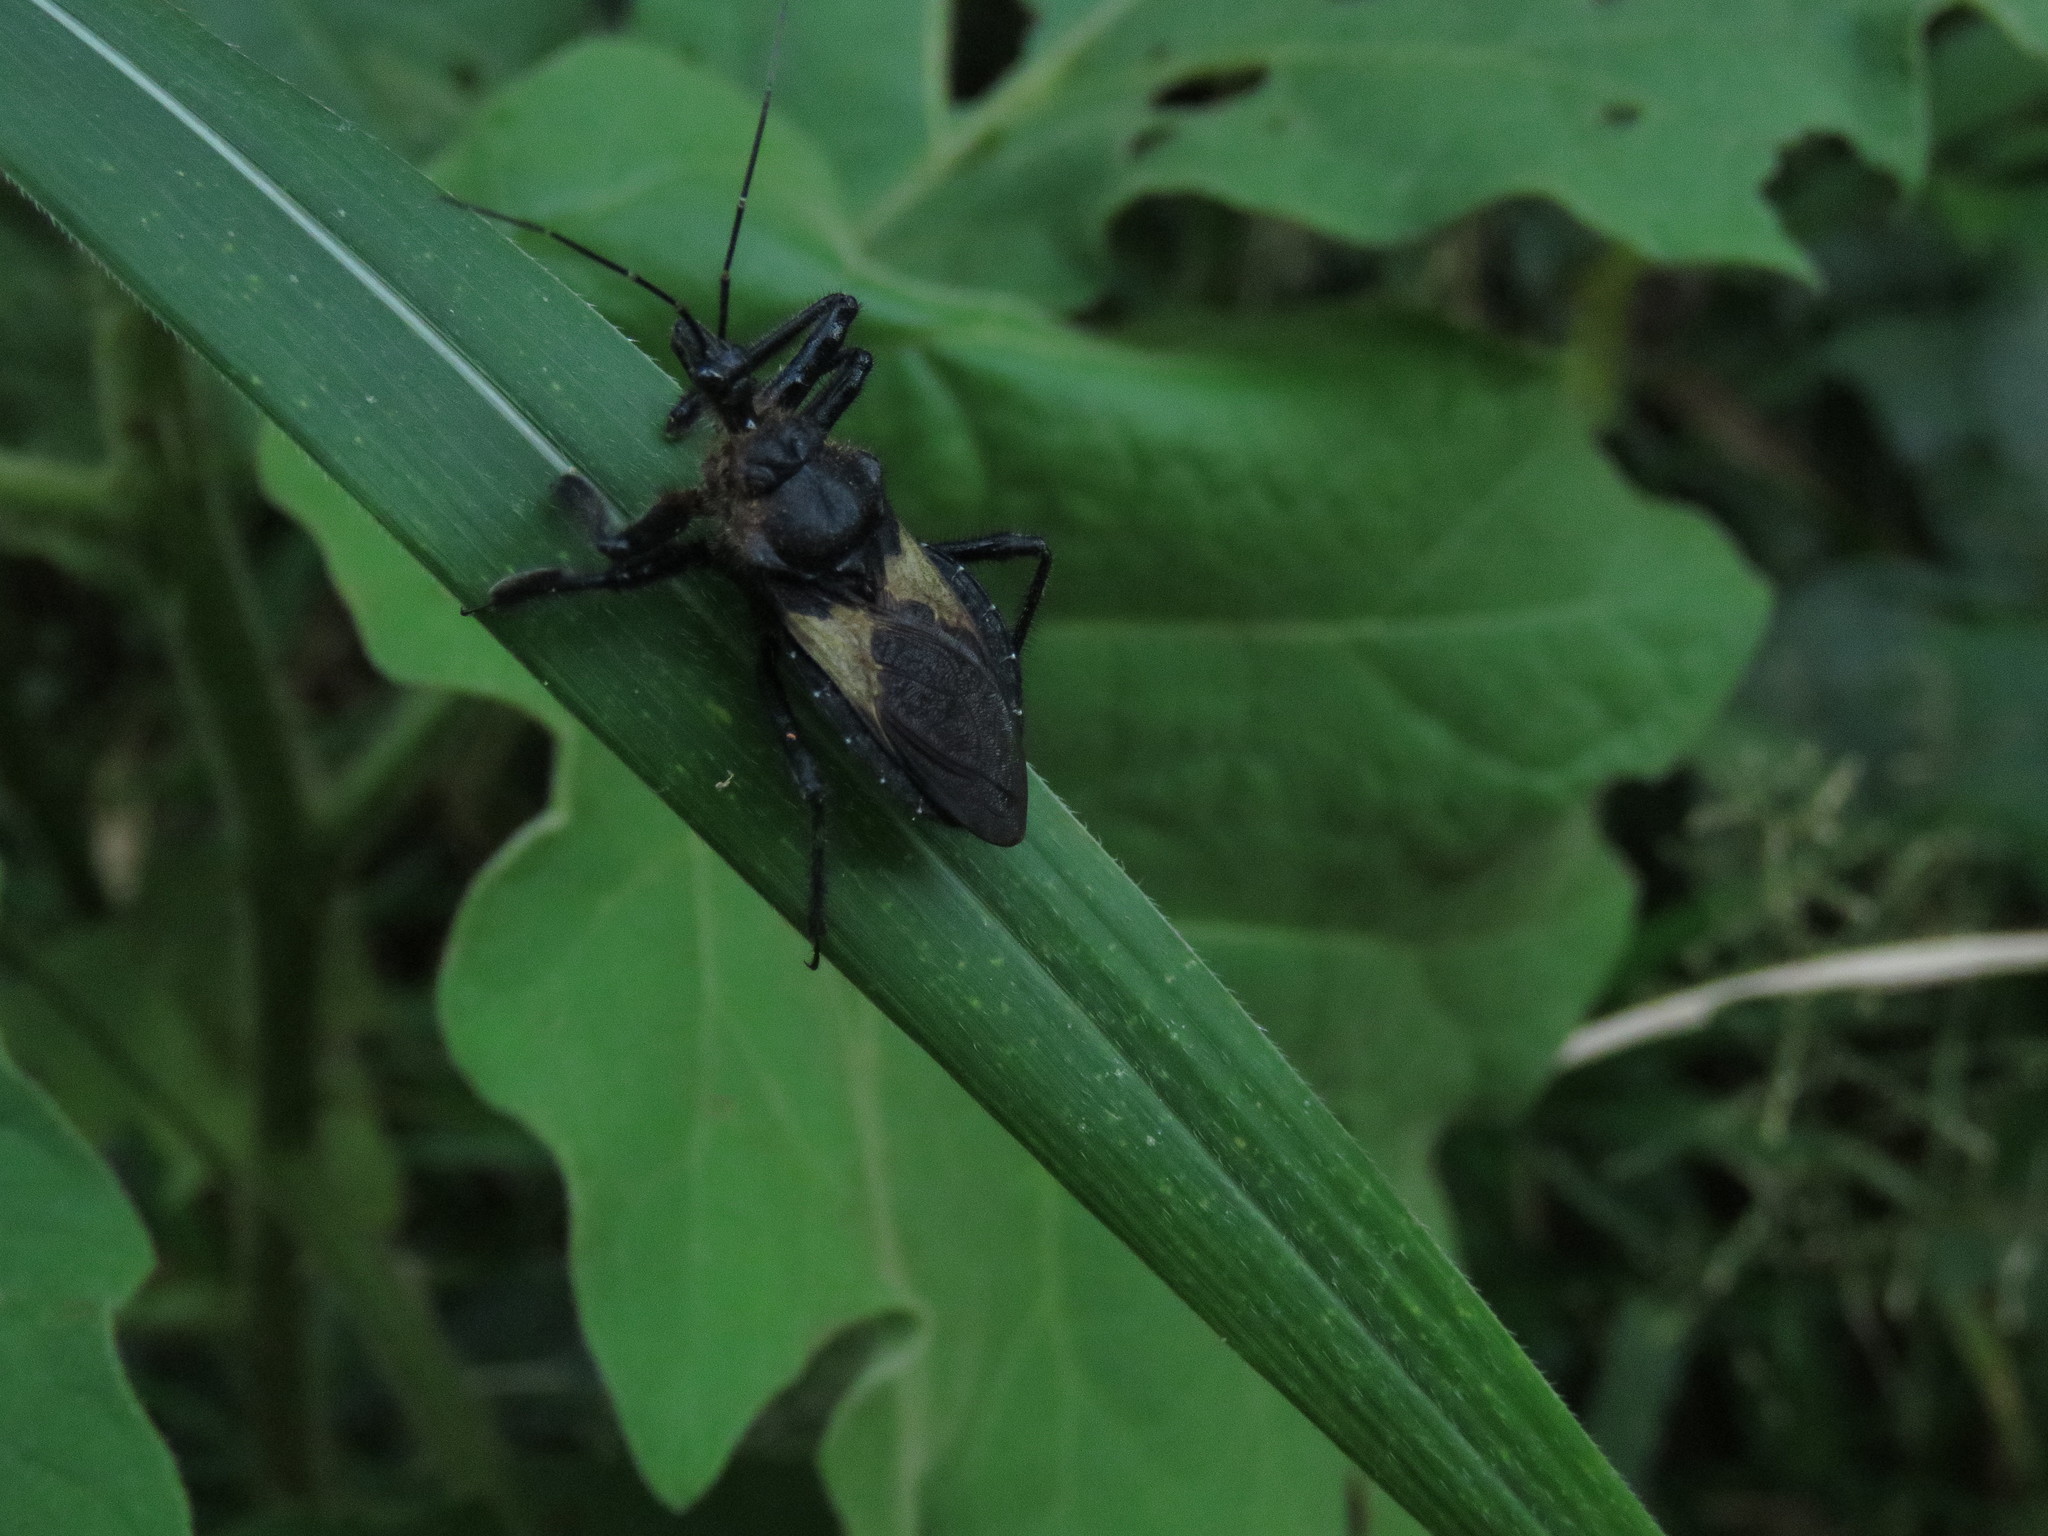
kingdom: Animalia
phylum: Arthropoda
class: Insecta
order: Hemiptera
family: Reduviidae
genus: Apiomerus
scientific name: Apiomerus lanipes
